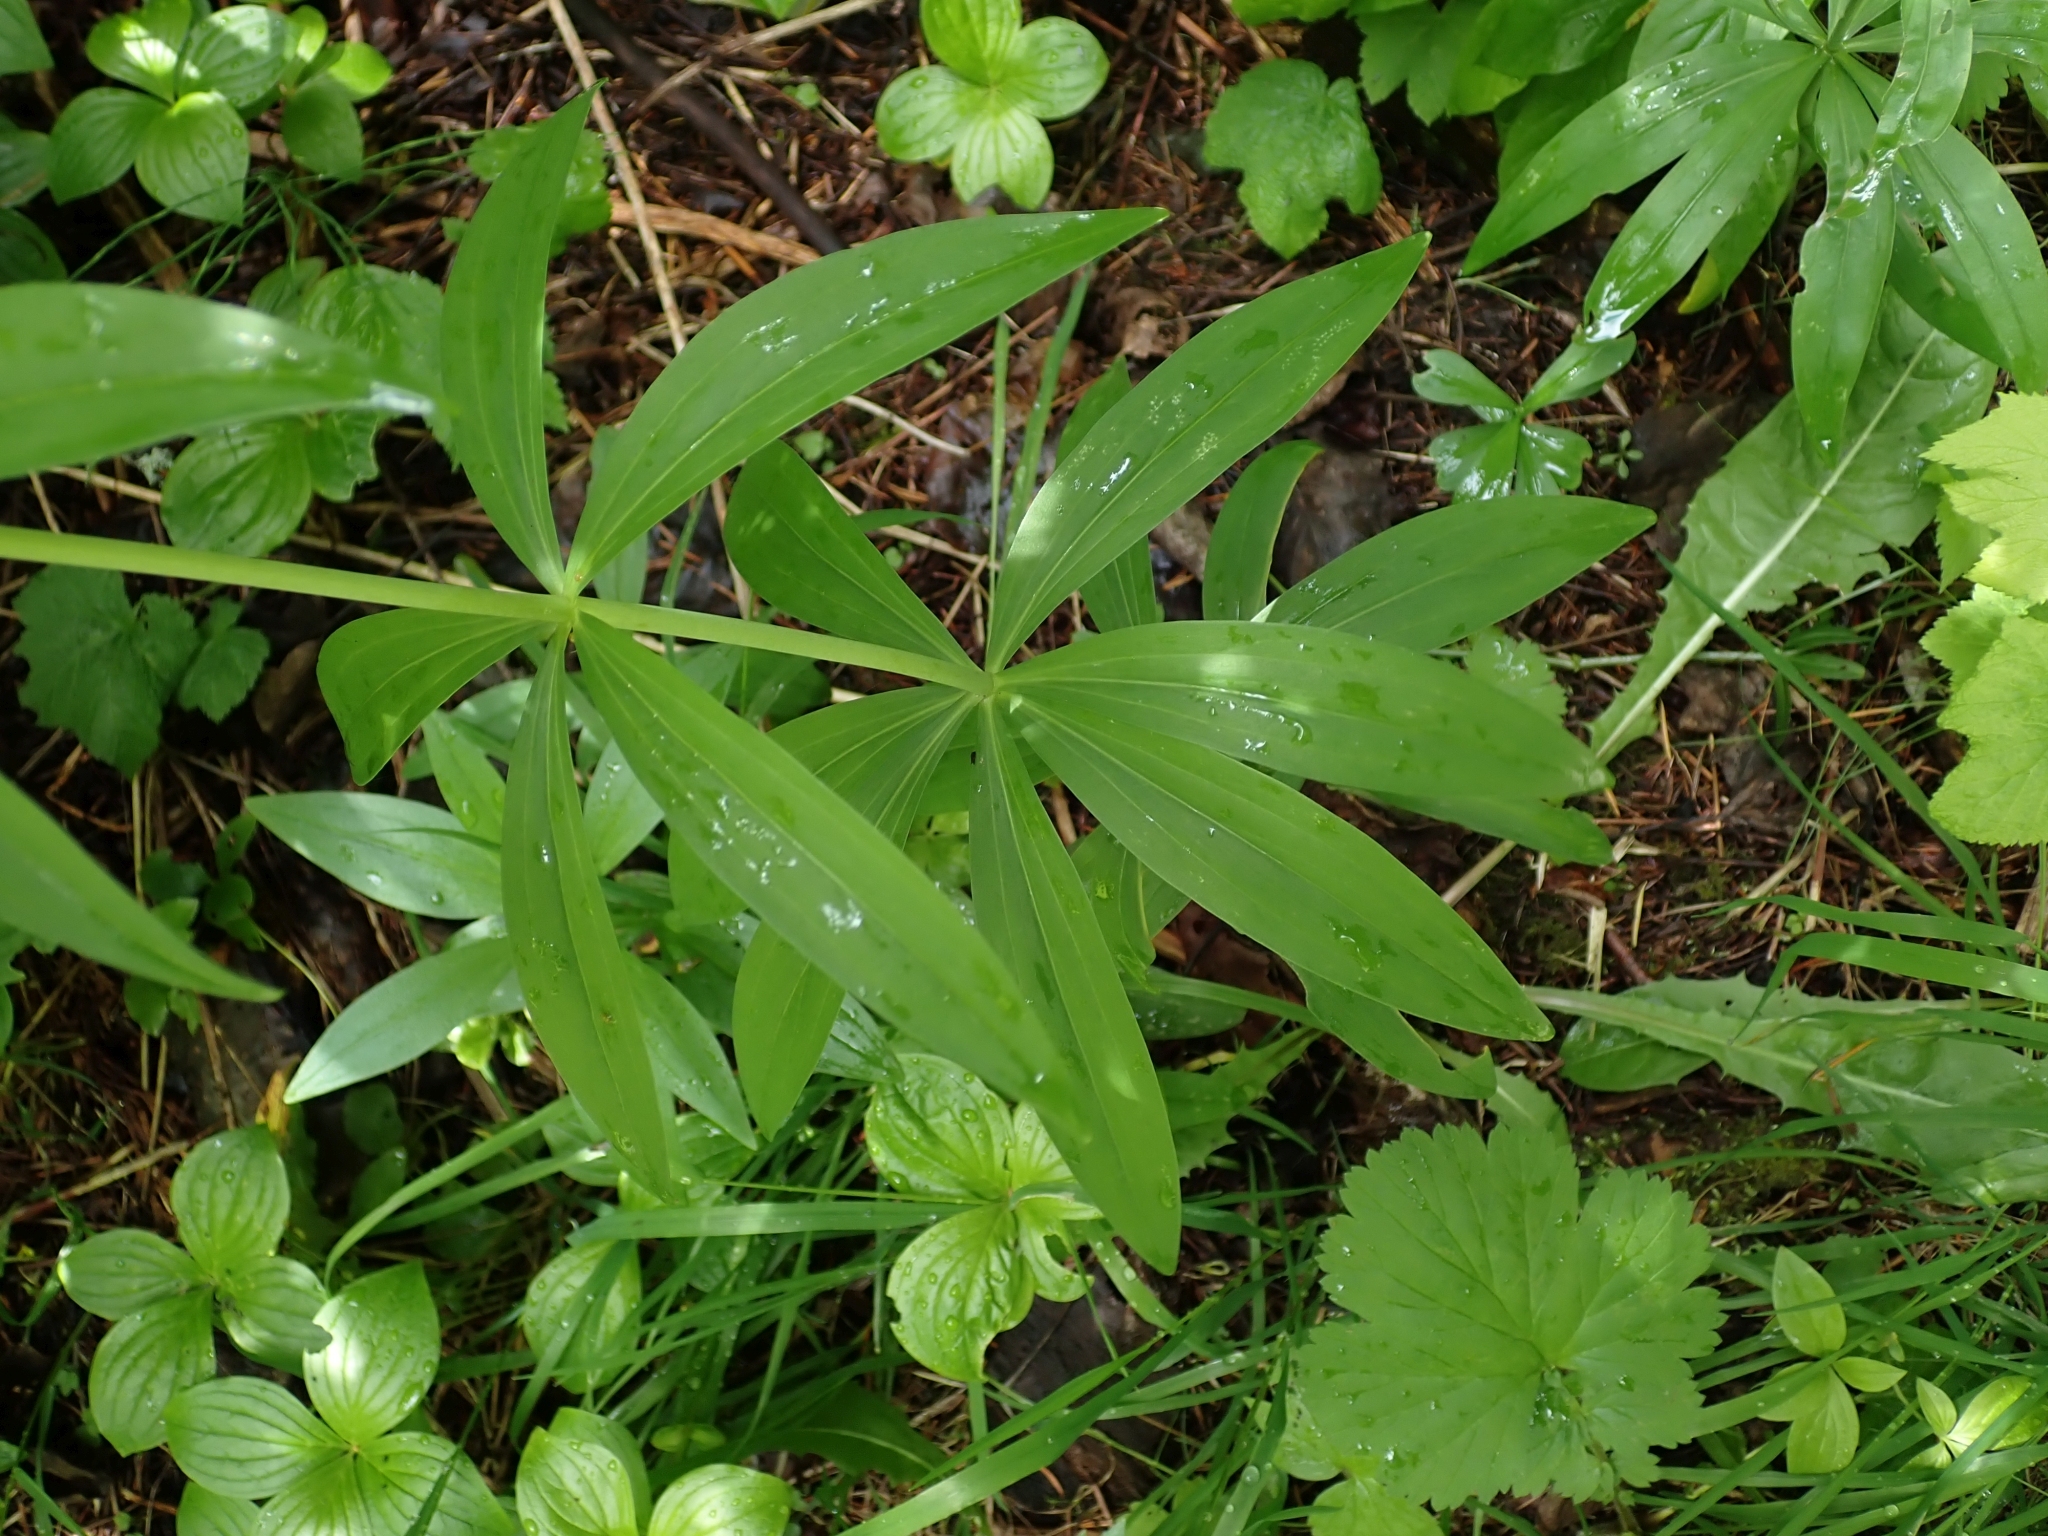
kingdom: Plantae
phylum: Tracheophyta
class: Liliopsida
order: Liliales
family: Liliaceae
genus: Lilium
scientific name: Lilium columbianum
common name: Columbia lily
